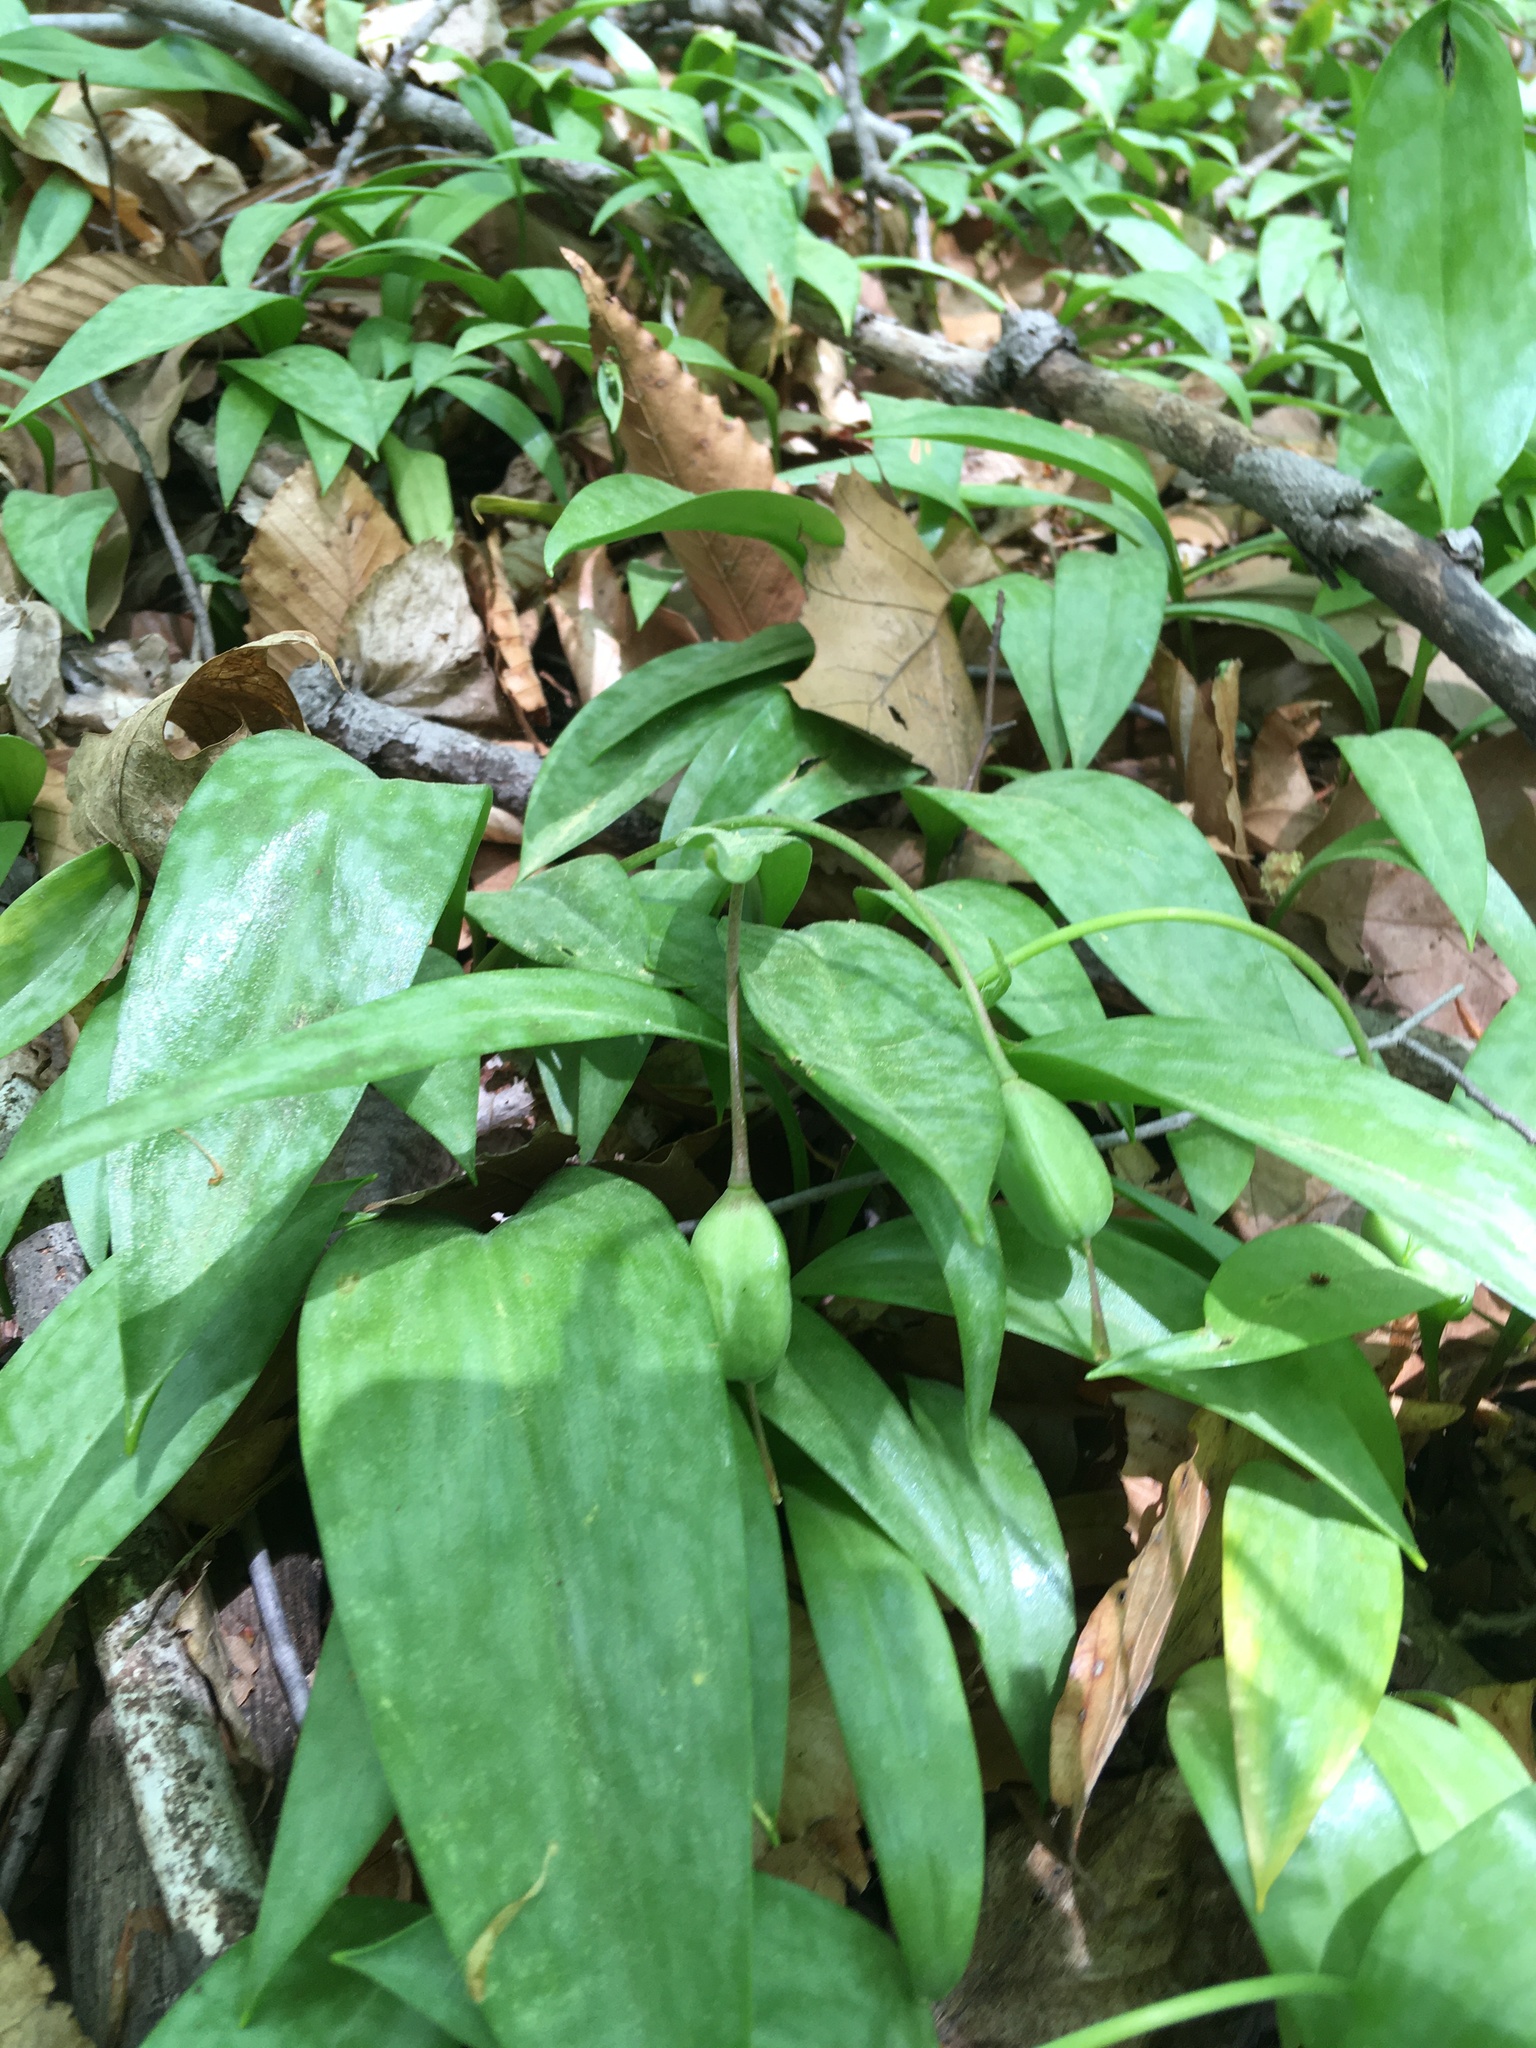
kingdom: Plantae
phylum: Tracheophyta
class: Liliopsida
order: Liliales
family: Liliaceae
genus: Erythronium
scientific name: Erythronium americanum
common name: Yellow adder's-tongue
